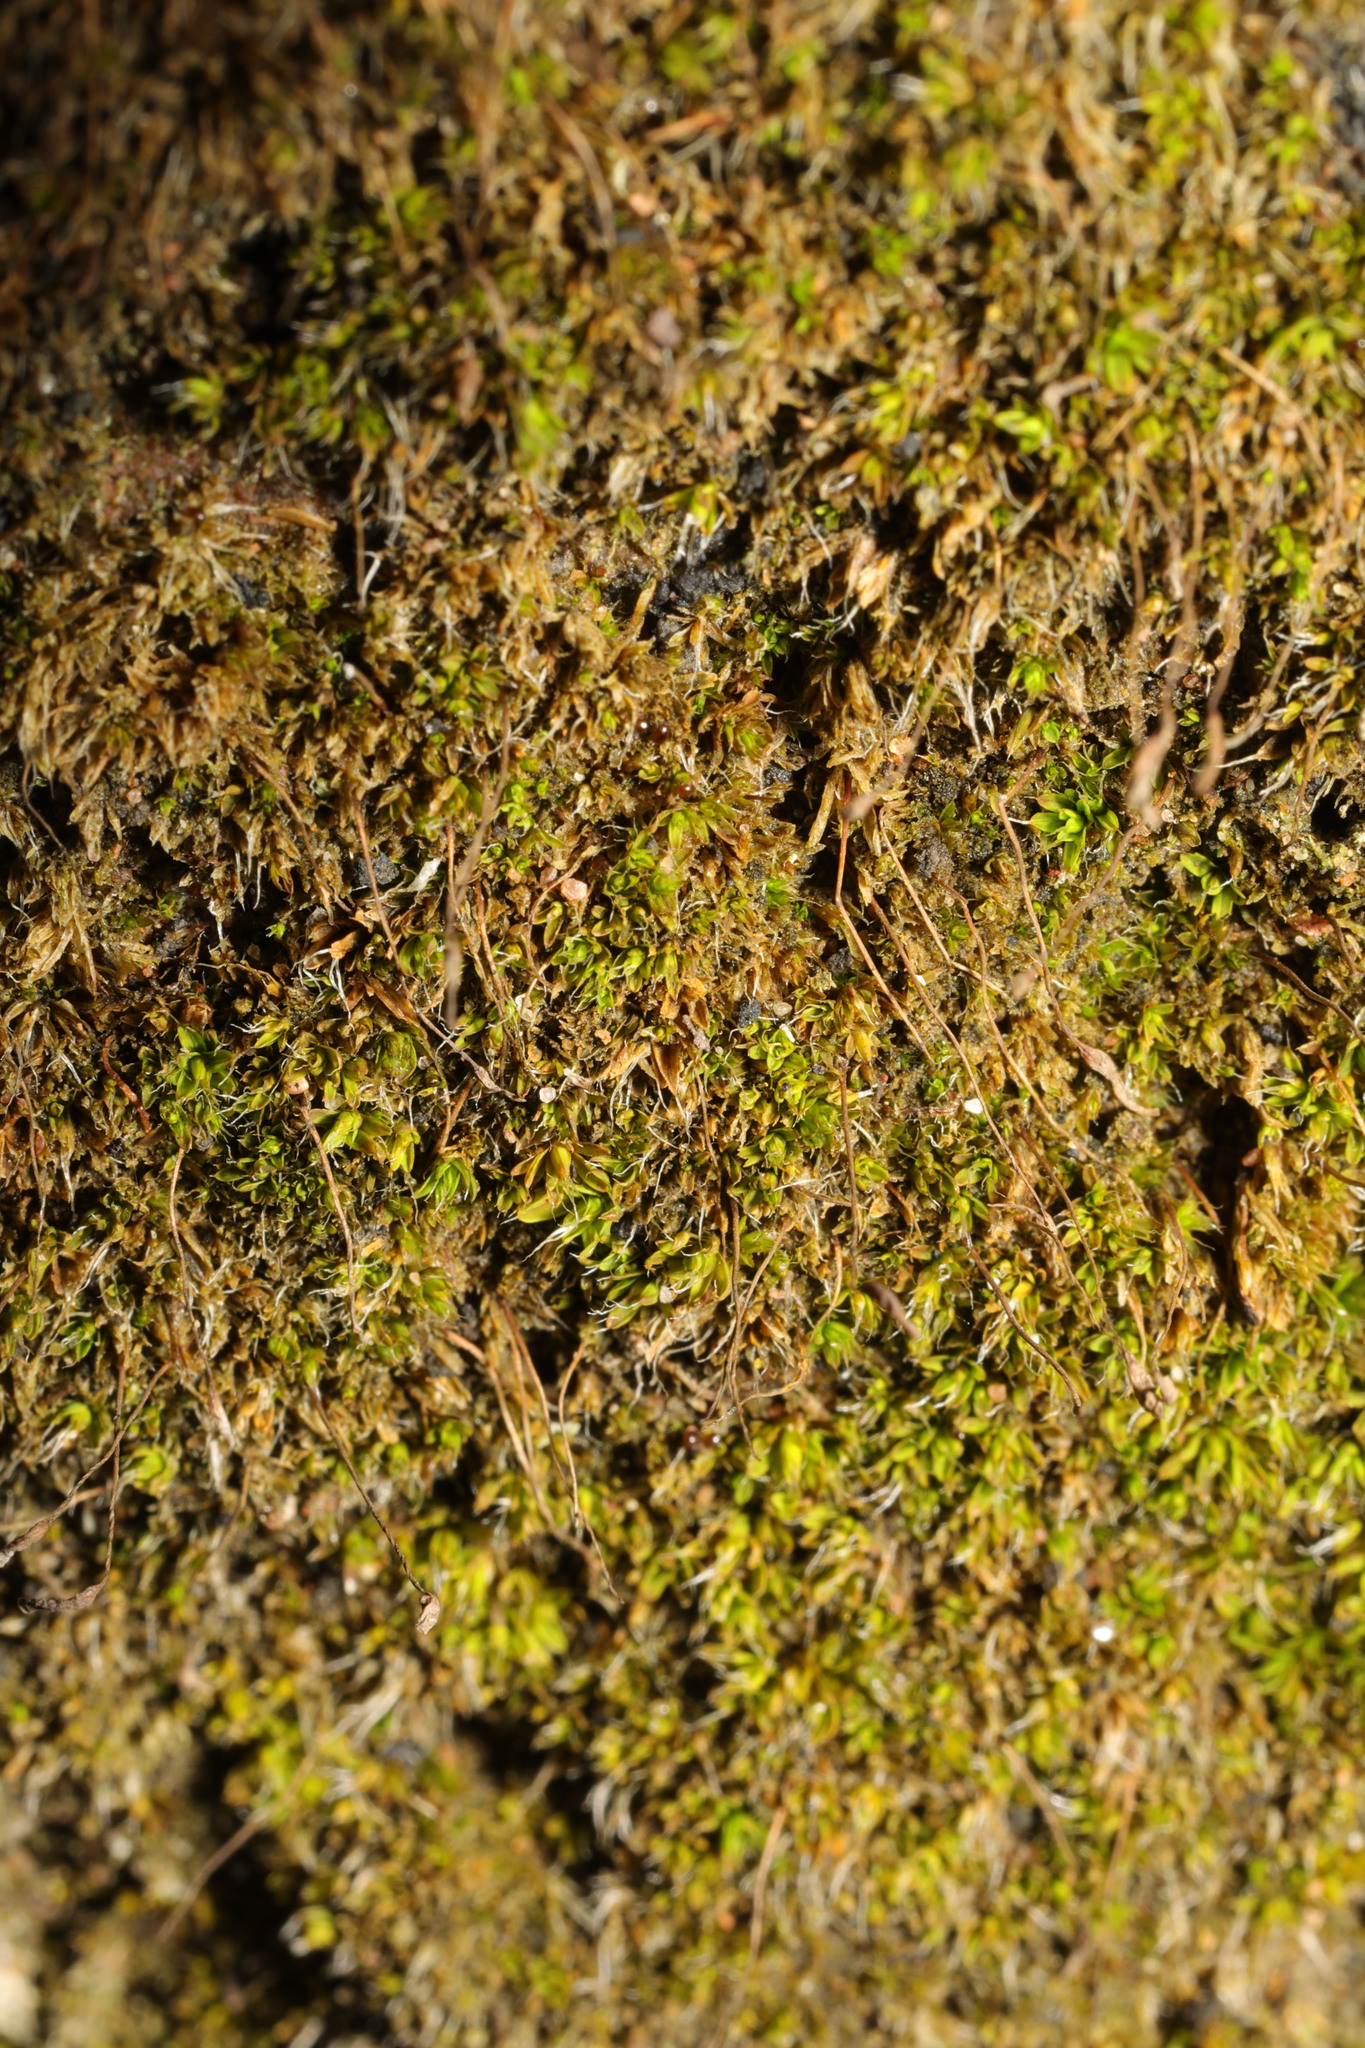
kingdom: Plantae
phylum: Bryophyta
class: Bryopsida
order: Pottiales
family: Pottiaceae
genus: Tortula
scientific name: Tortula acaulon
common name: Cuspidate earth moss
